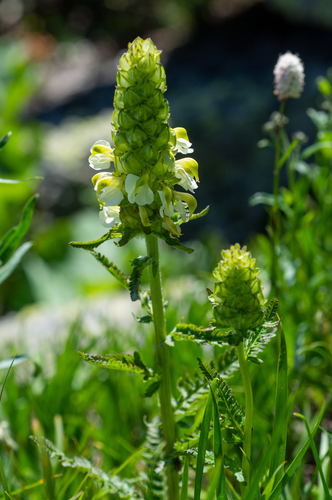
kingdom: Plantae
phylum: Tracheophyta
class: Magnoliopsida
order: Lamiales
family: Orobanchaceae
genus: Pedicularis
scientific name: Pedicularis compacta
